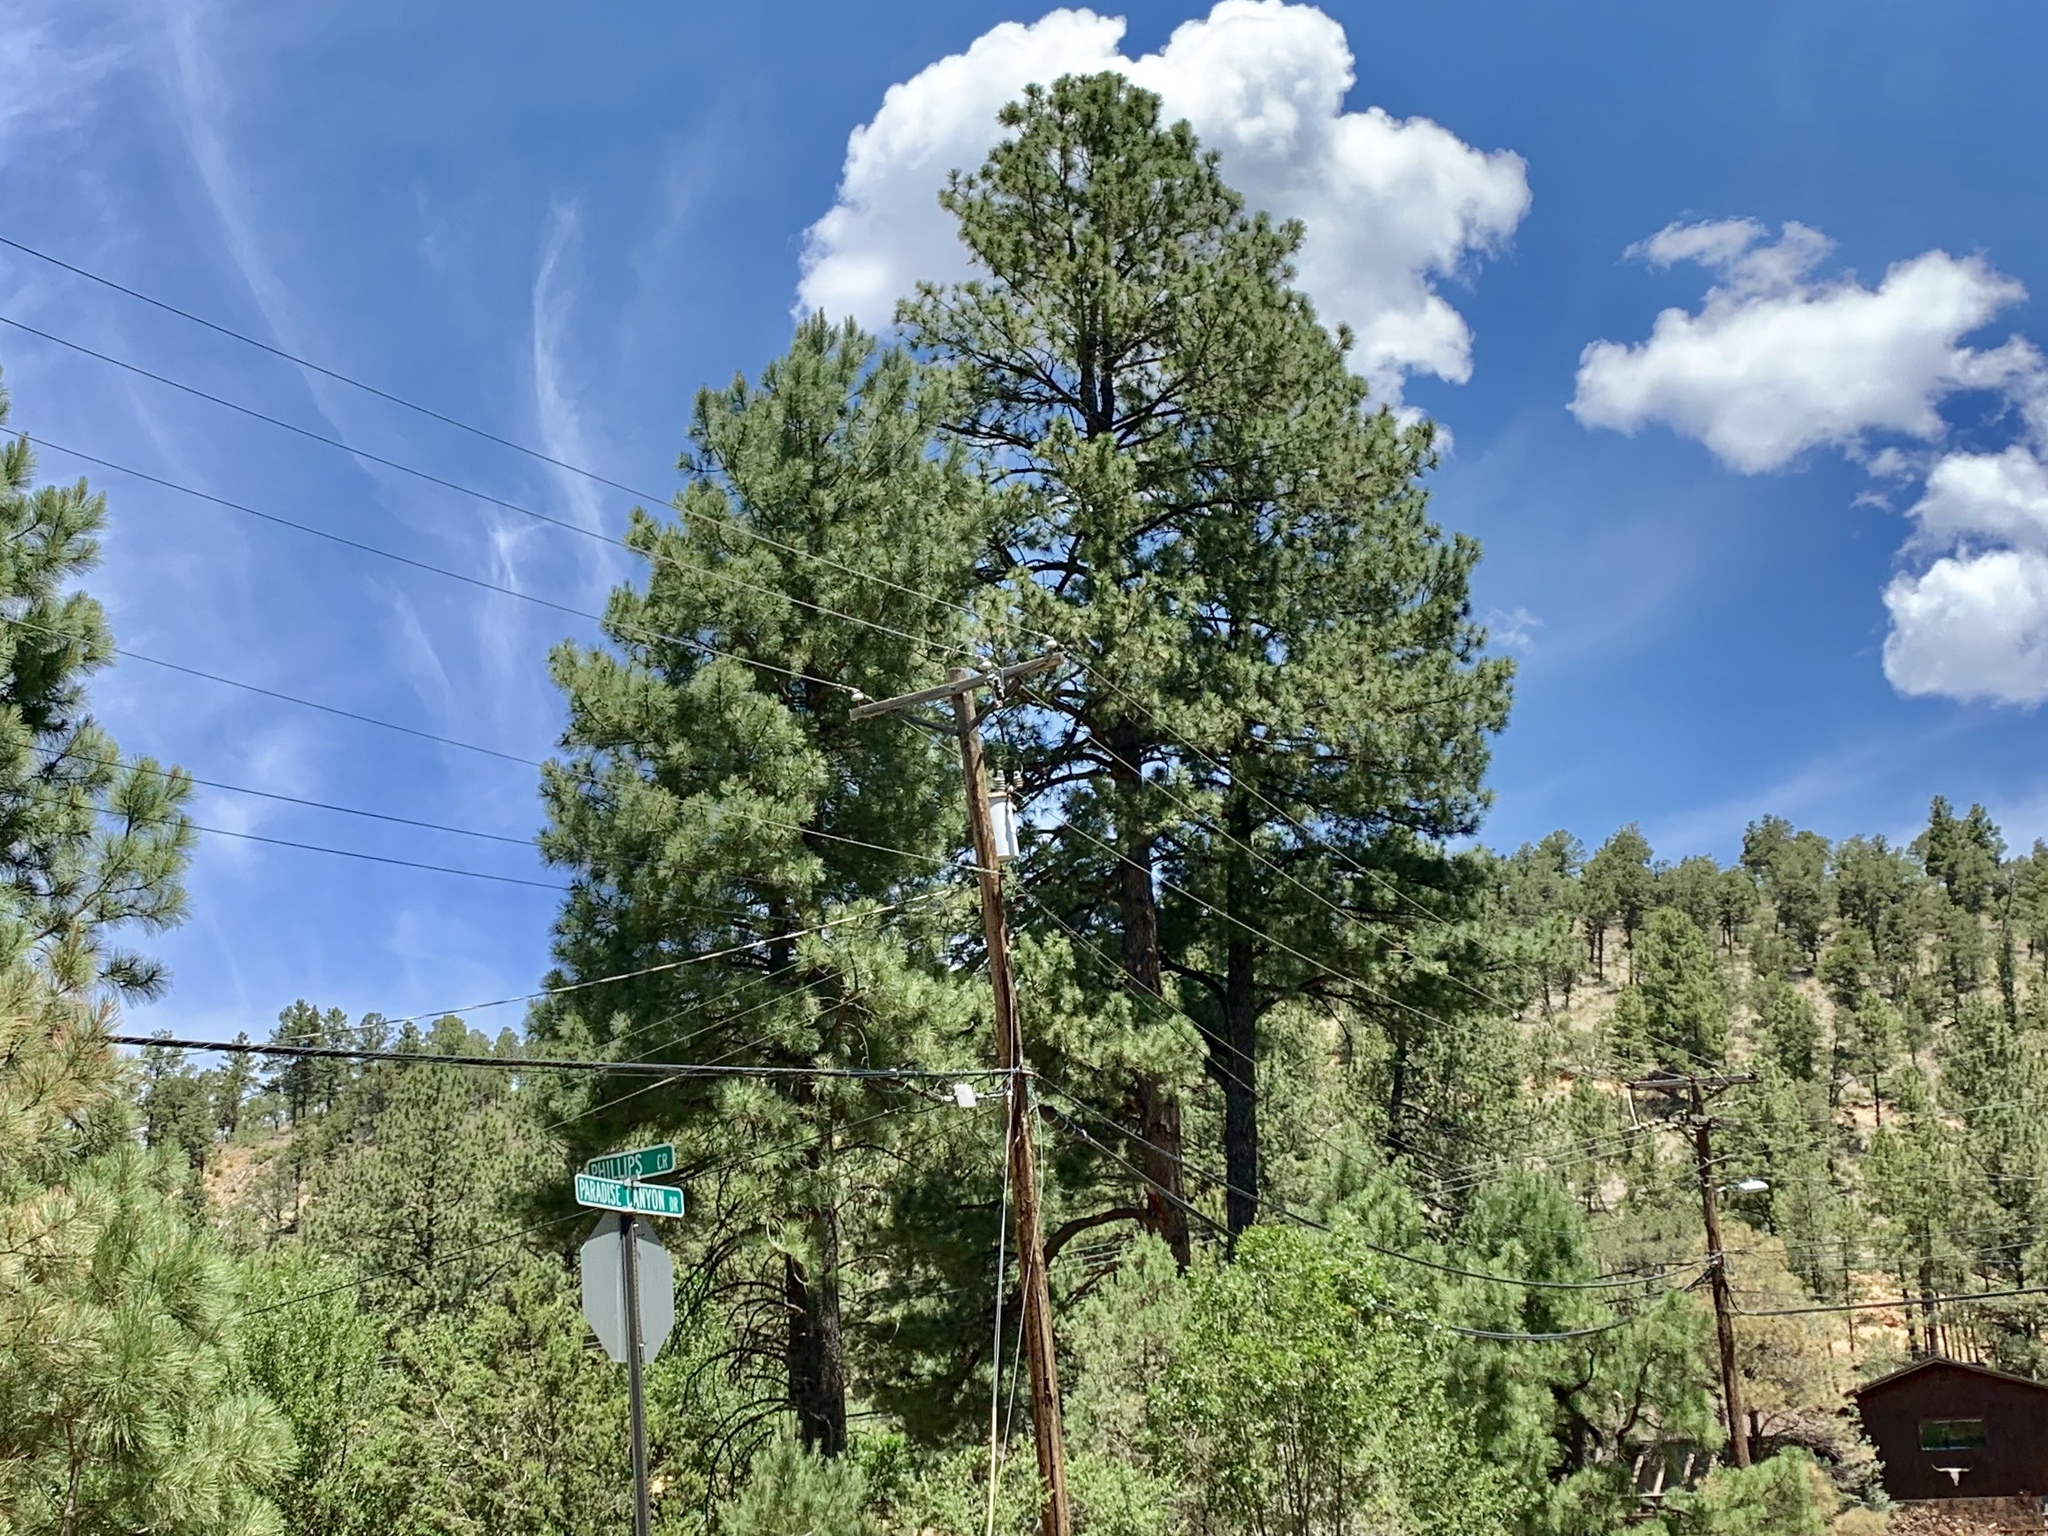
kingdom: Plantae
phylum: Tracheophyta
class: Pinopsida
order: Pinales
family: Pinaceae
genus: Pinus
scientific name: Pinus ponderosa
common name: Western yellow-pine
